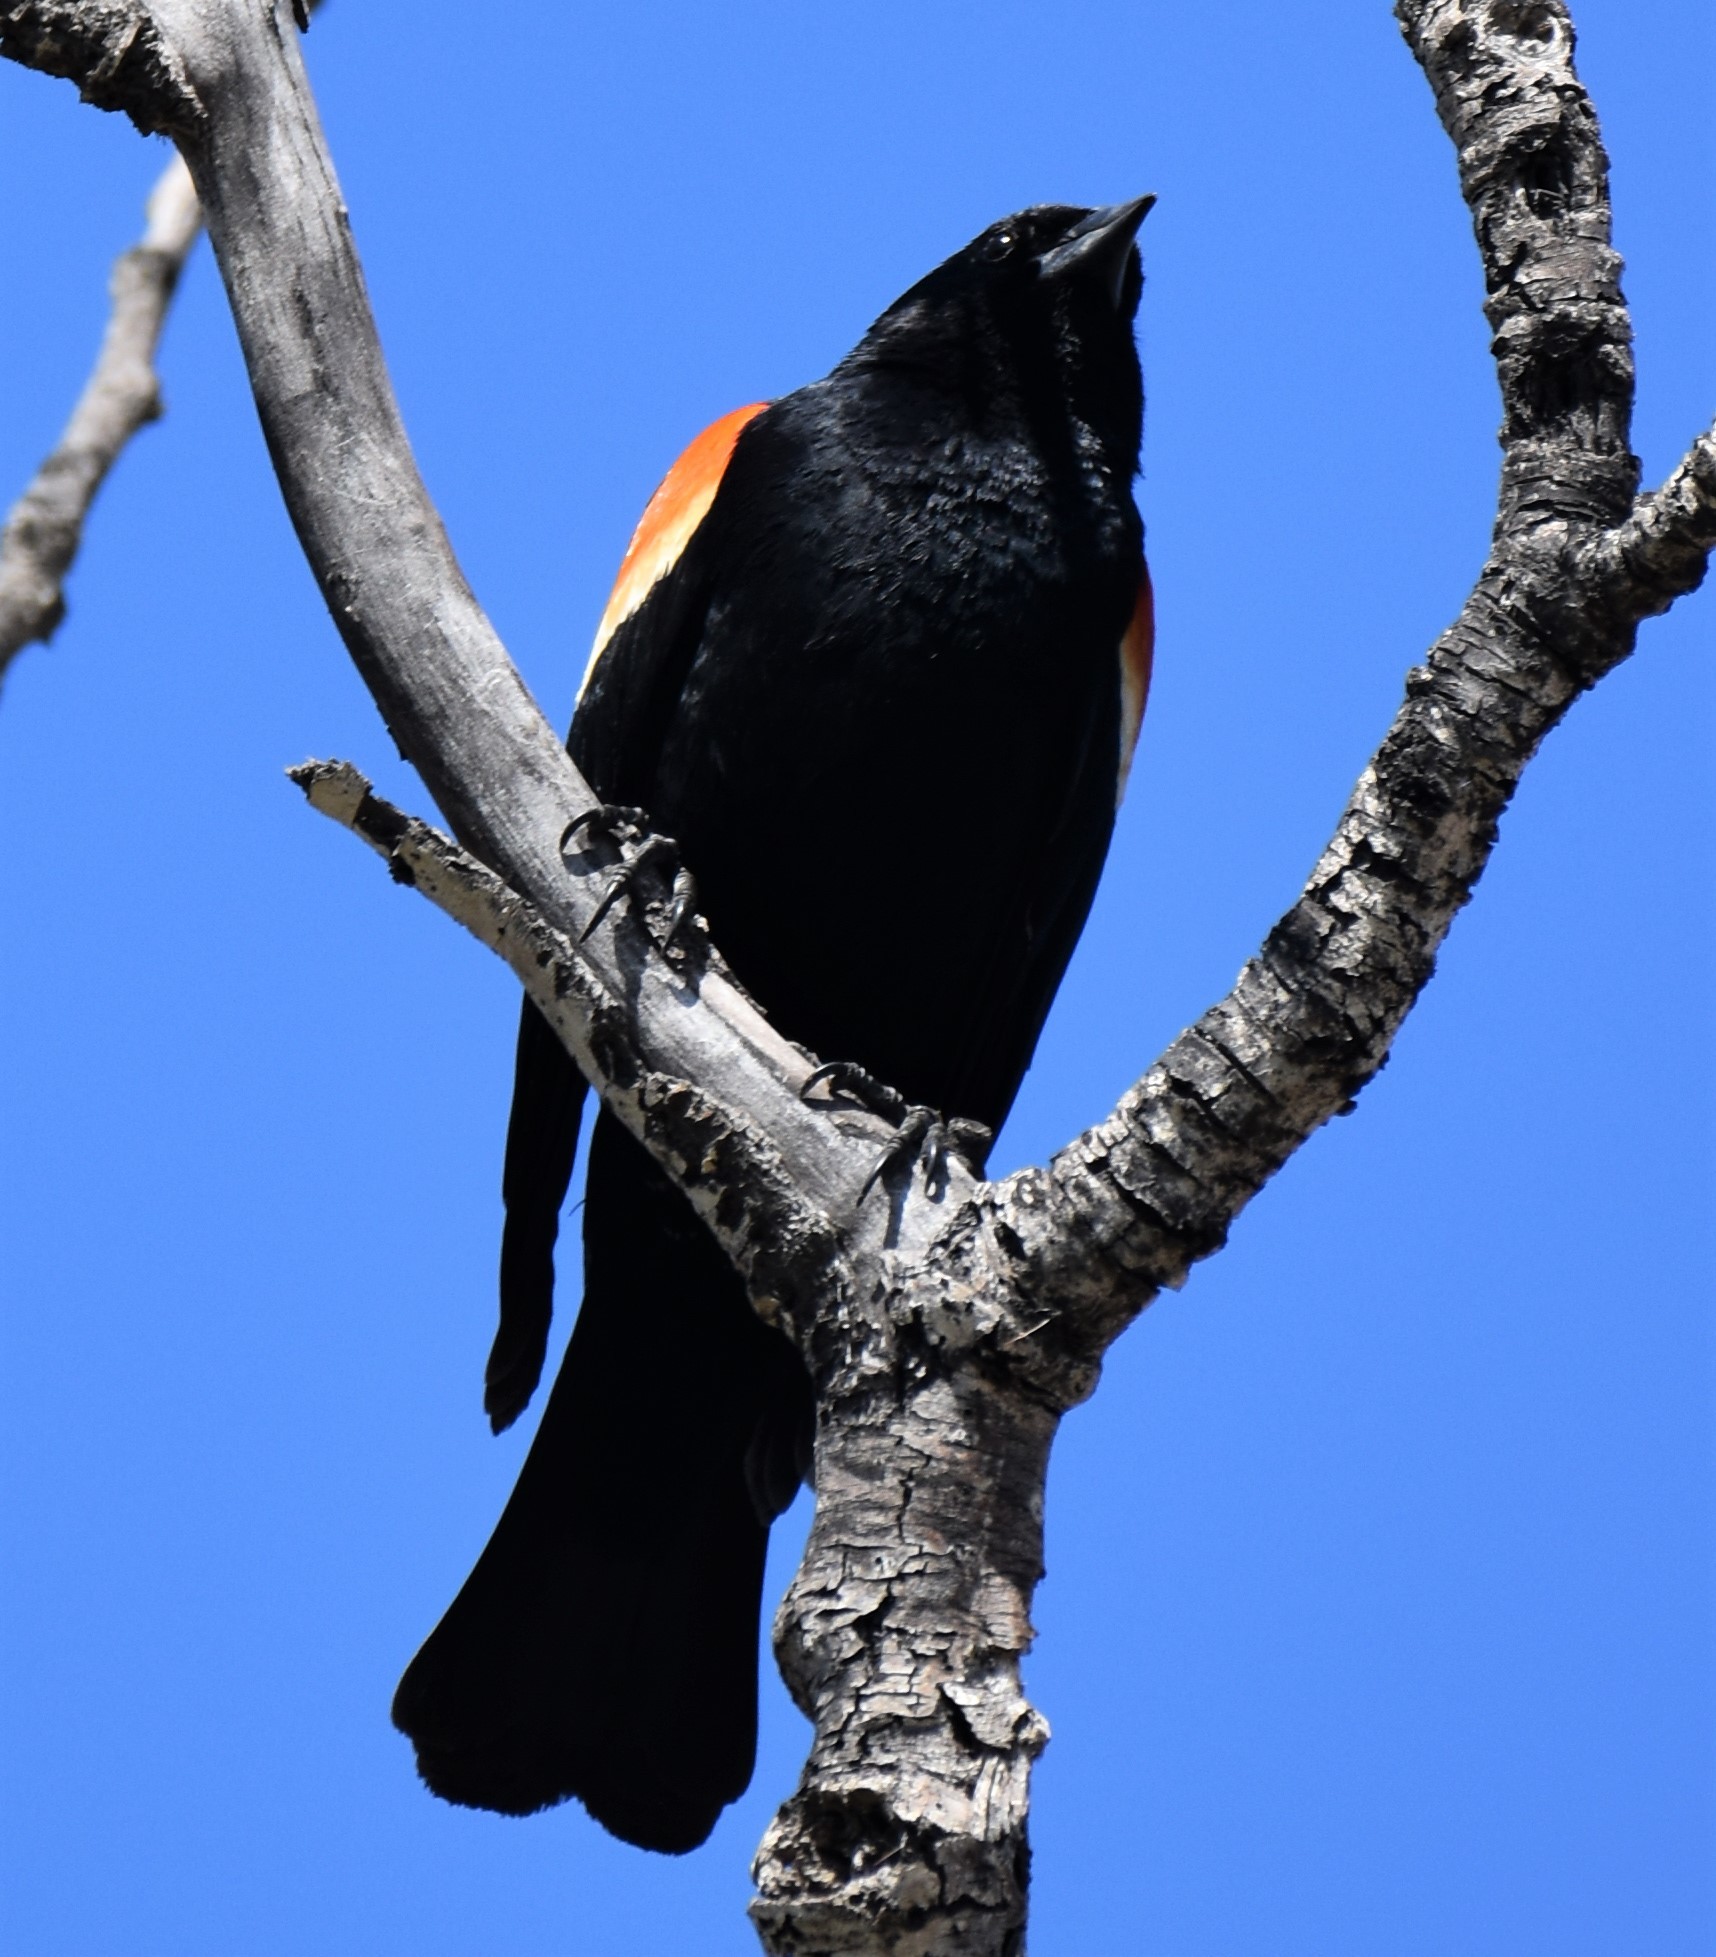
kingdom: Animalia
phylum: Chordata
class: Aves
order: Passeriformes
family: Icteridae
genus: Agelaius
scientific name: Agelaius phoeniceus
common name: Red-winged blackbird
